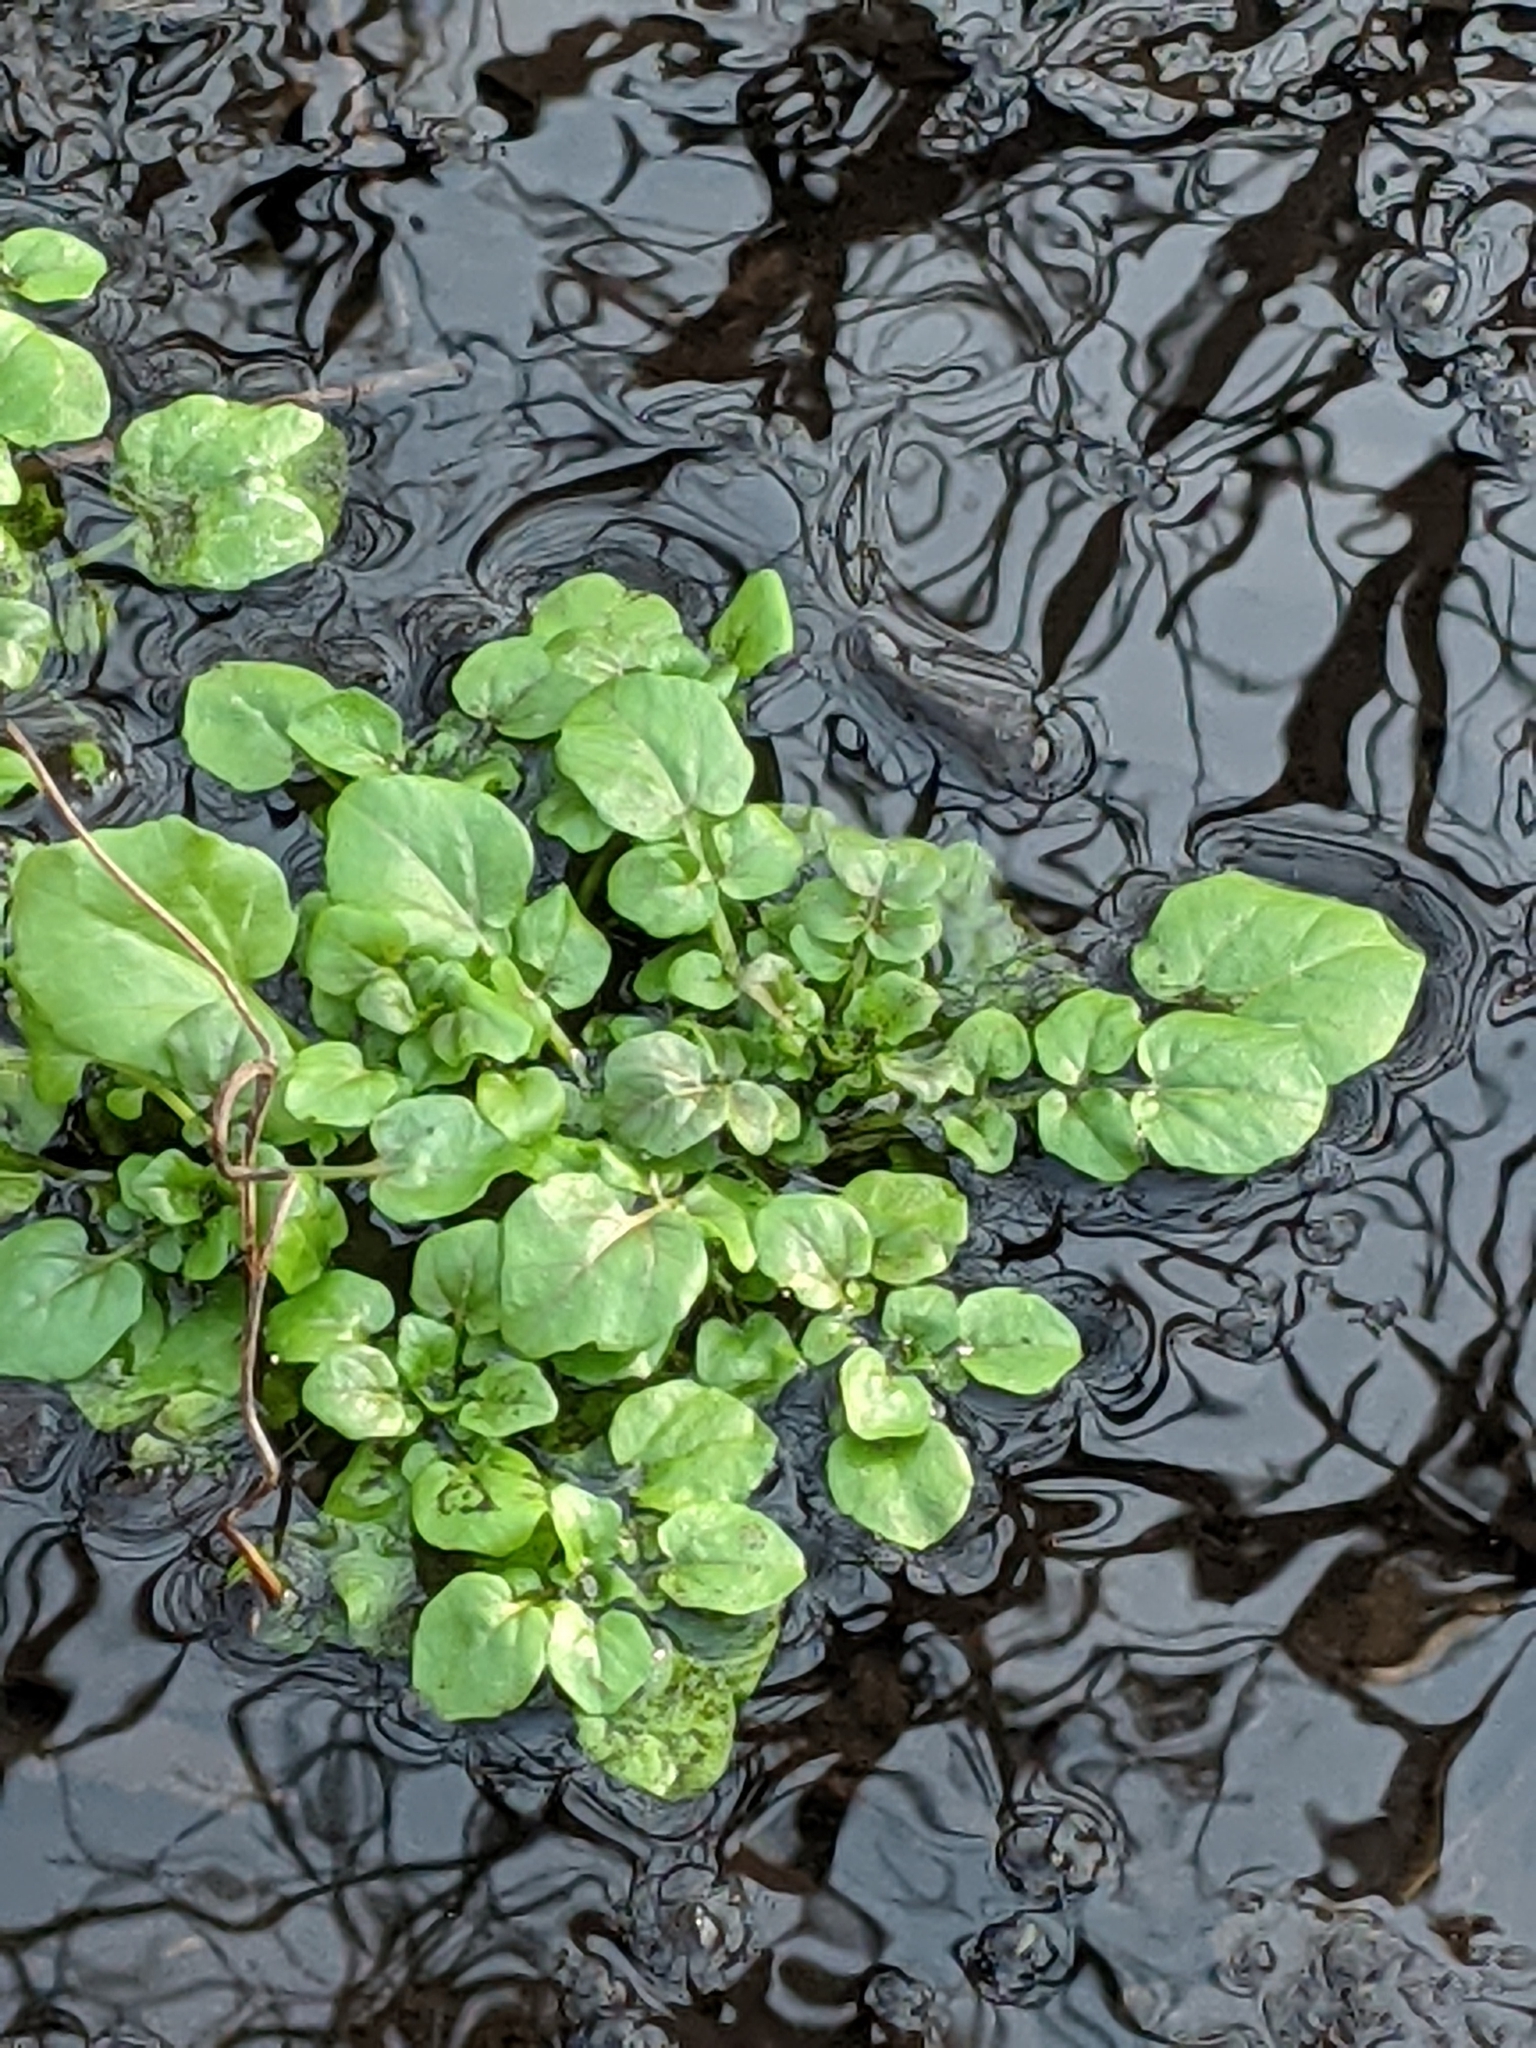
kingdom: Plantae
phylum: Tracheophyta
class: Magnoliopsida
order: Brassicales
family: Brassicaceae
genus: Nasturtium
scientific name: Nasturtium officinale
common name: Watercress
